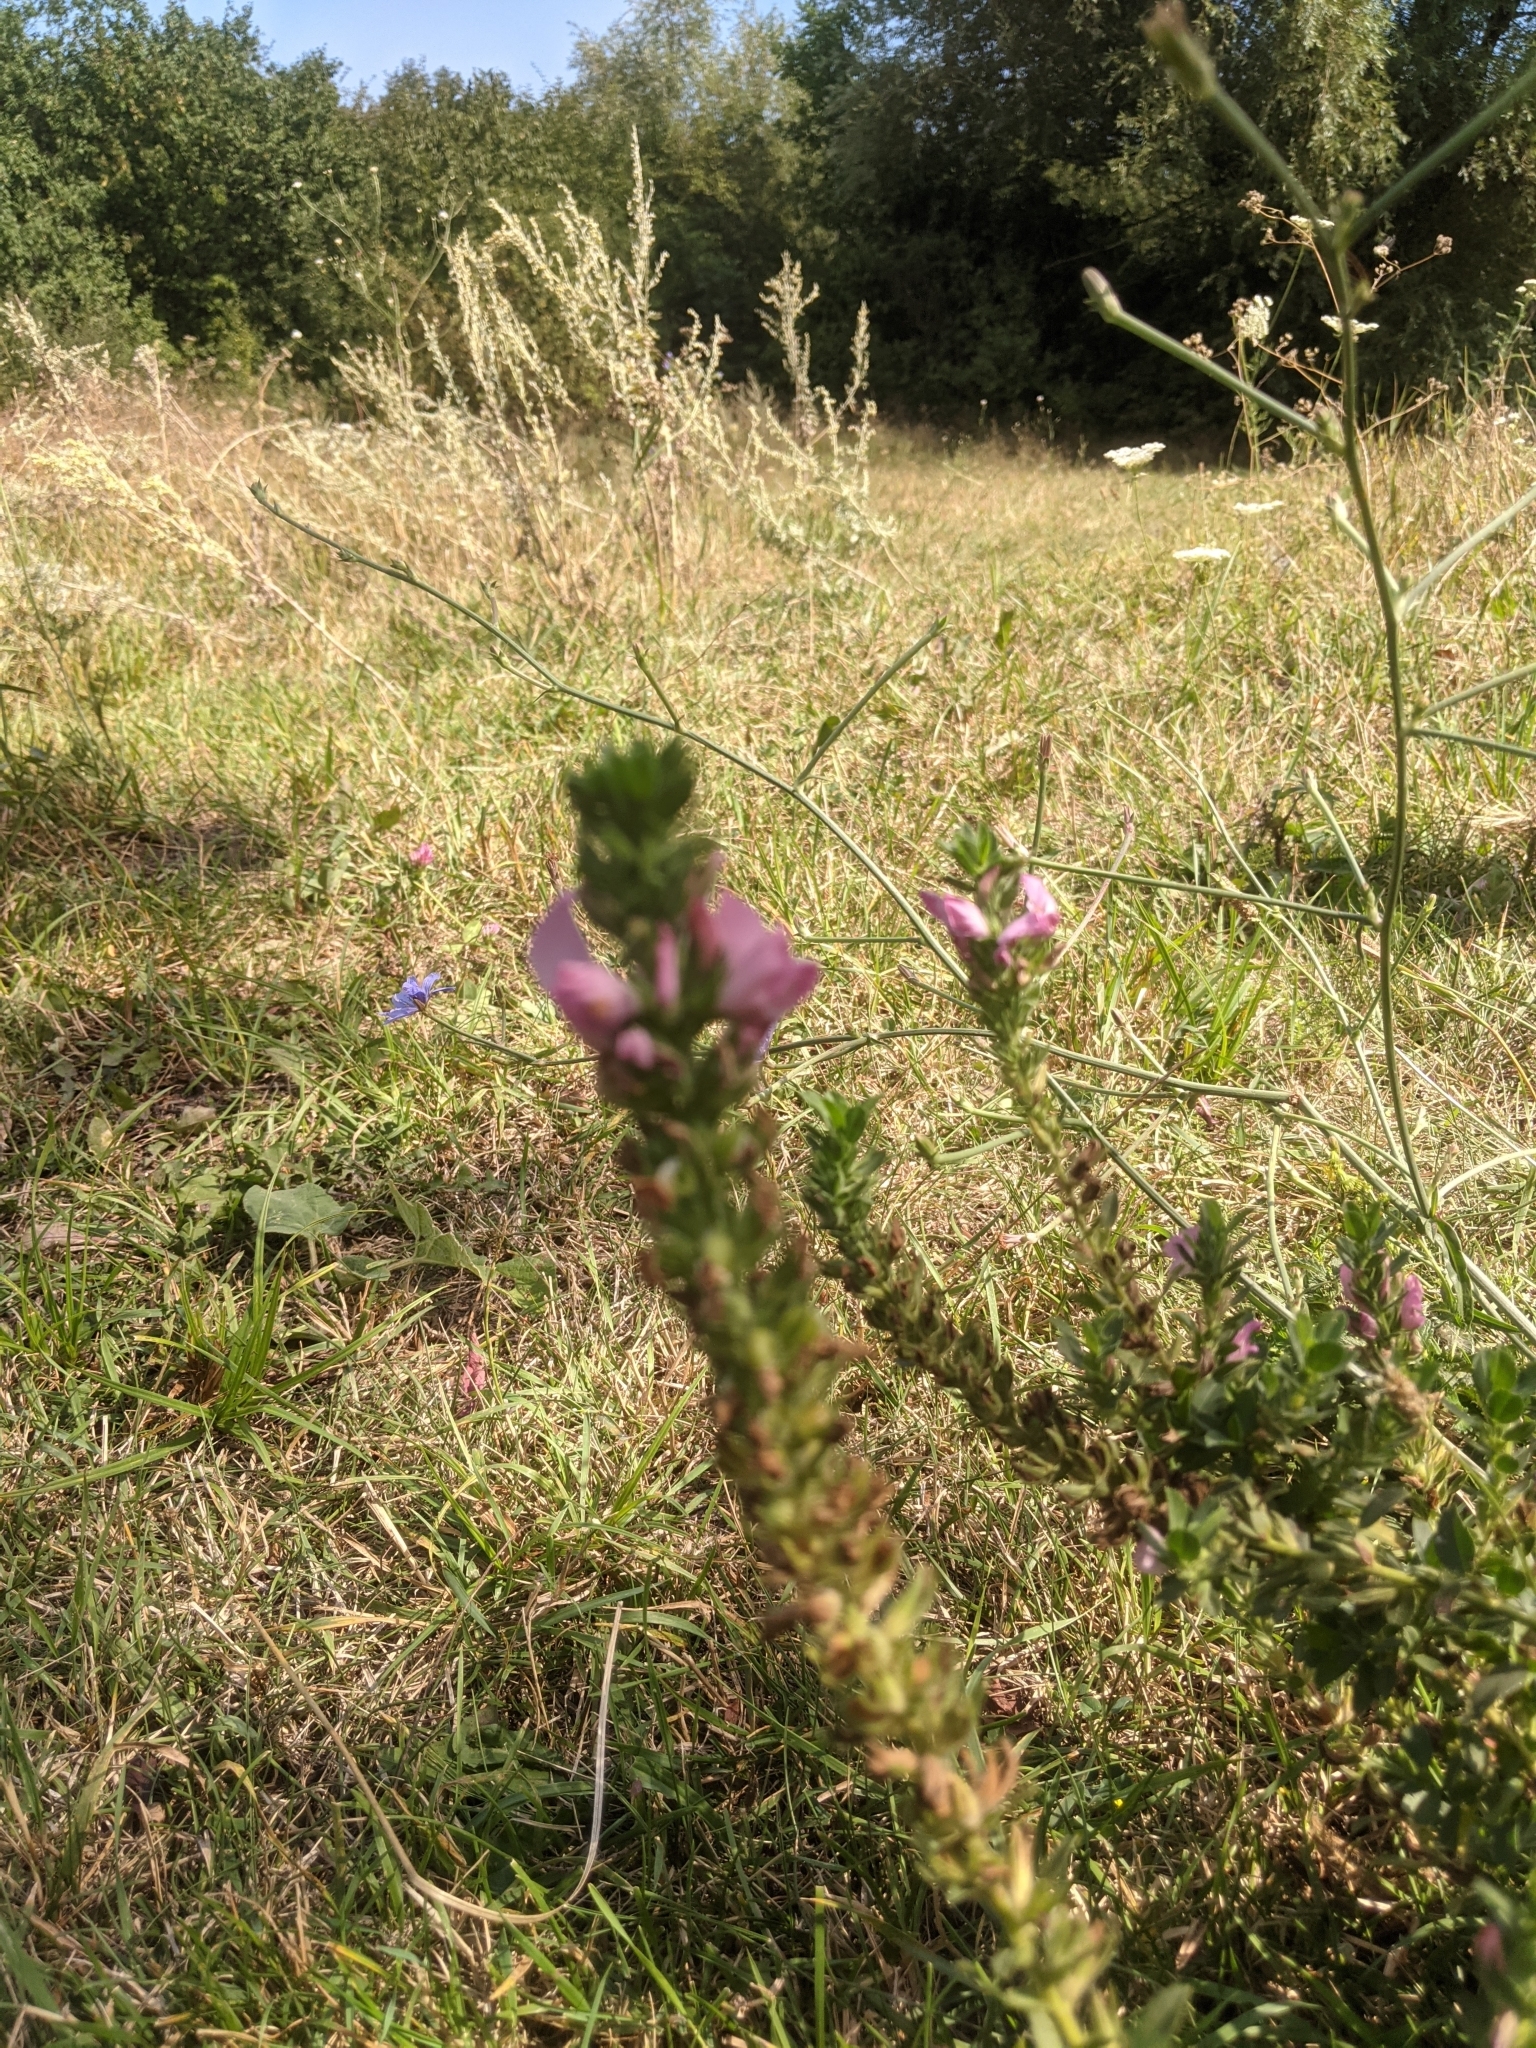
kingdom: Plantae
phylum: Tracheophyta
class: Magnoliopsida
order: Fabales
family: Fabaceae
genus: Ononis
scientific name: Ononis arvensis
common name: Field restharrow
